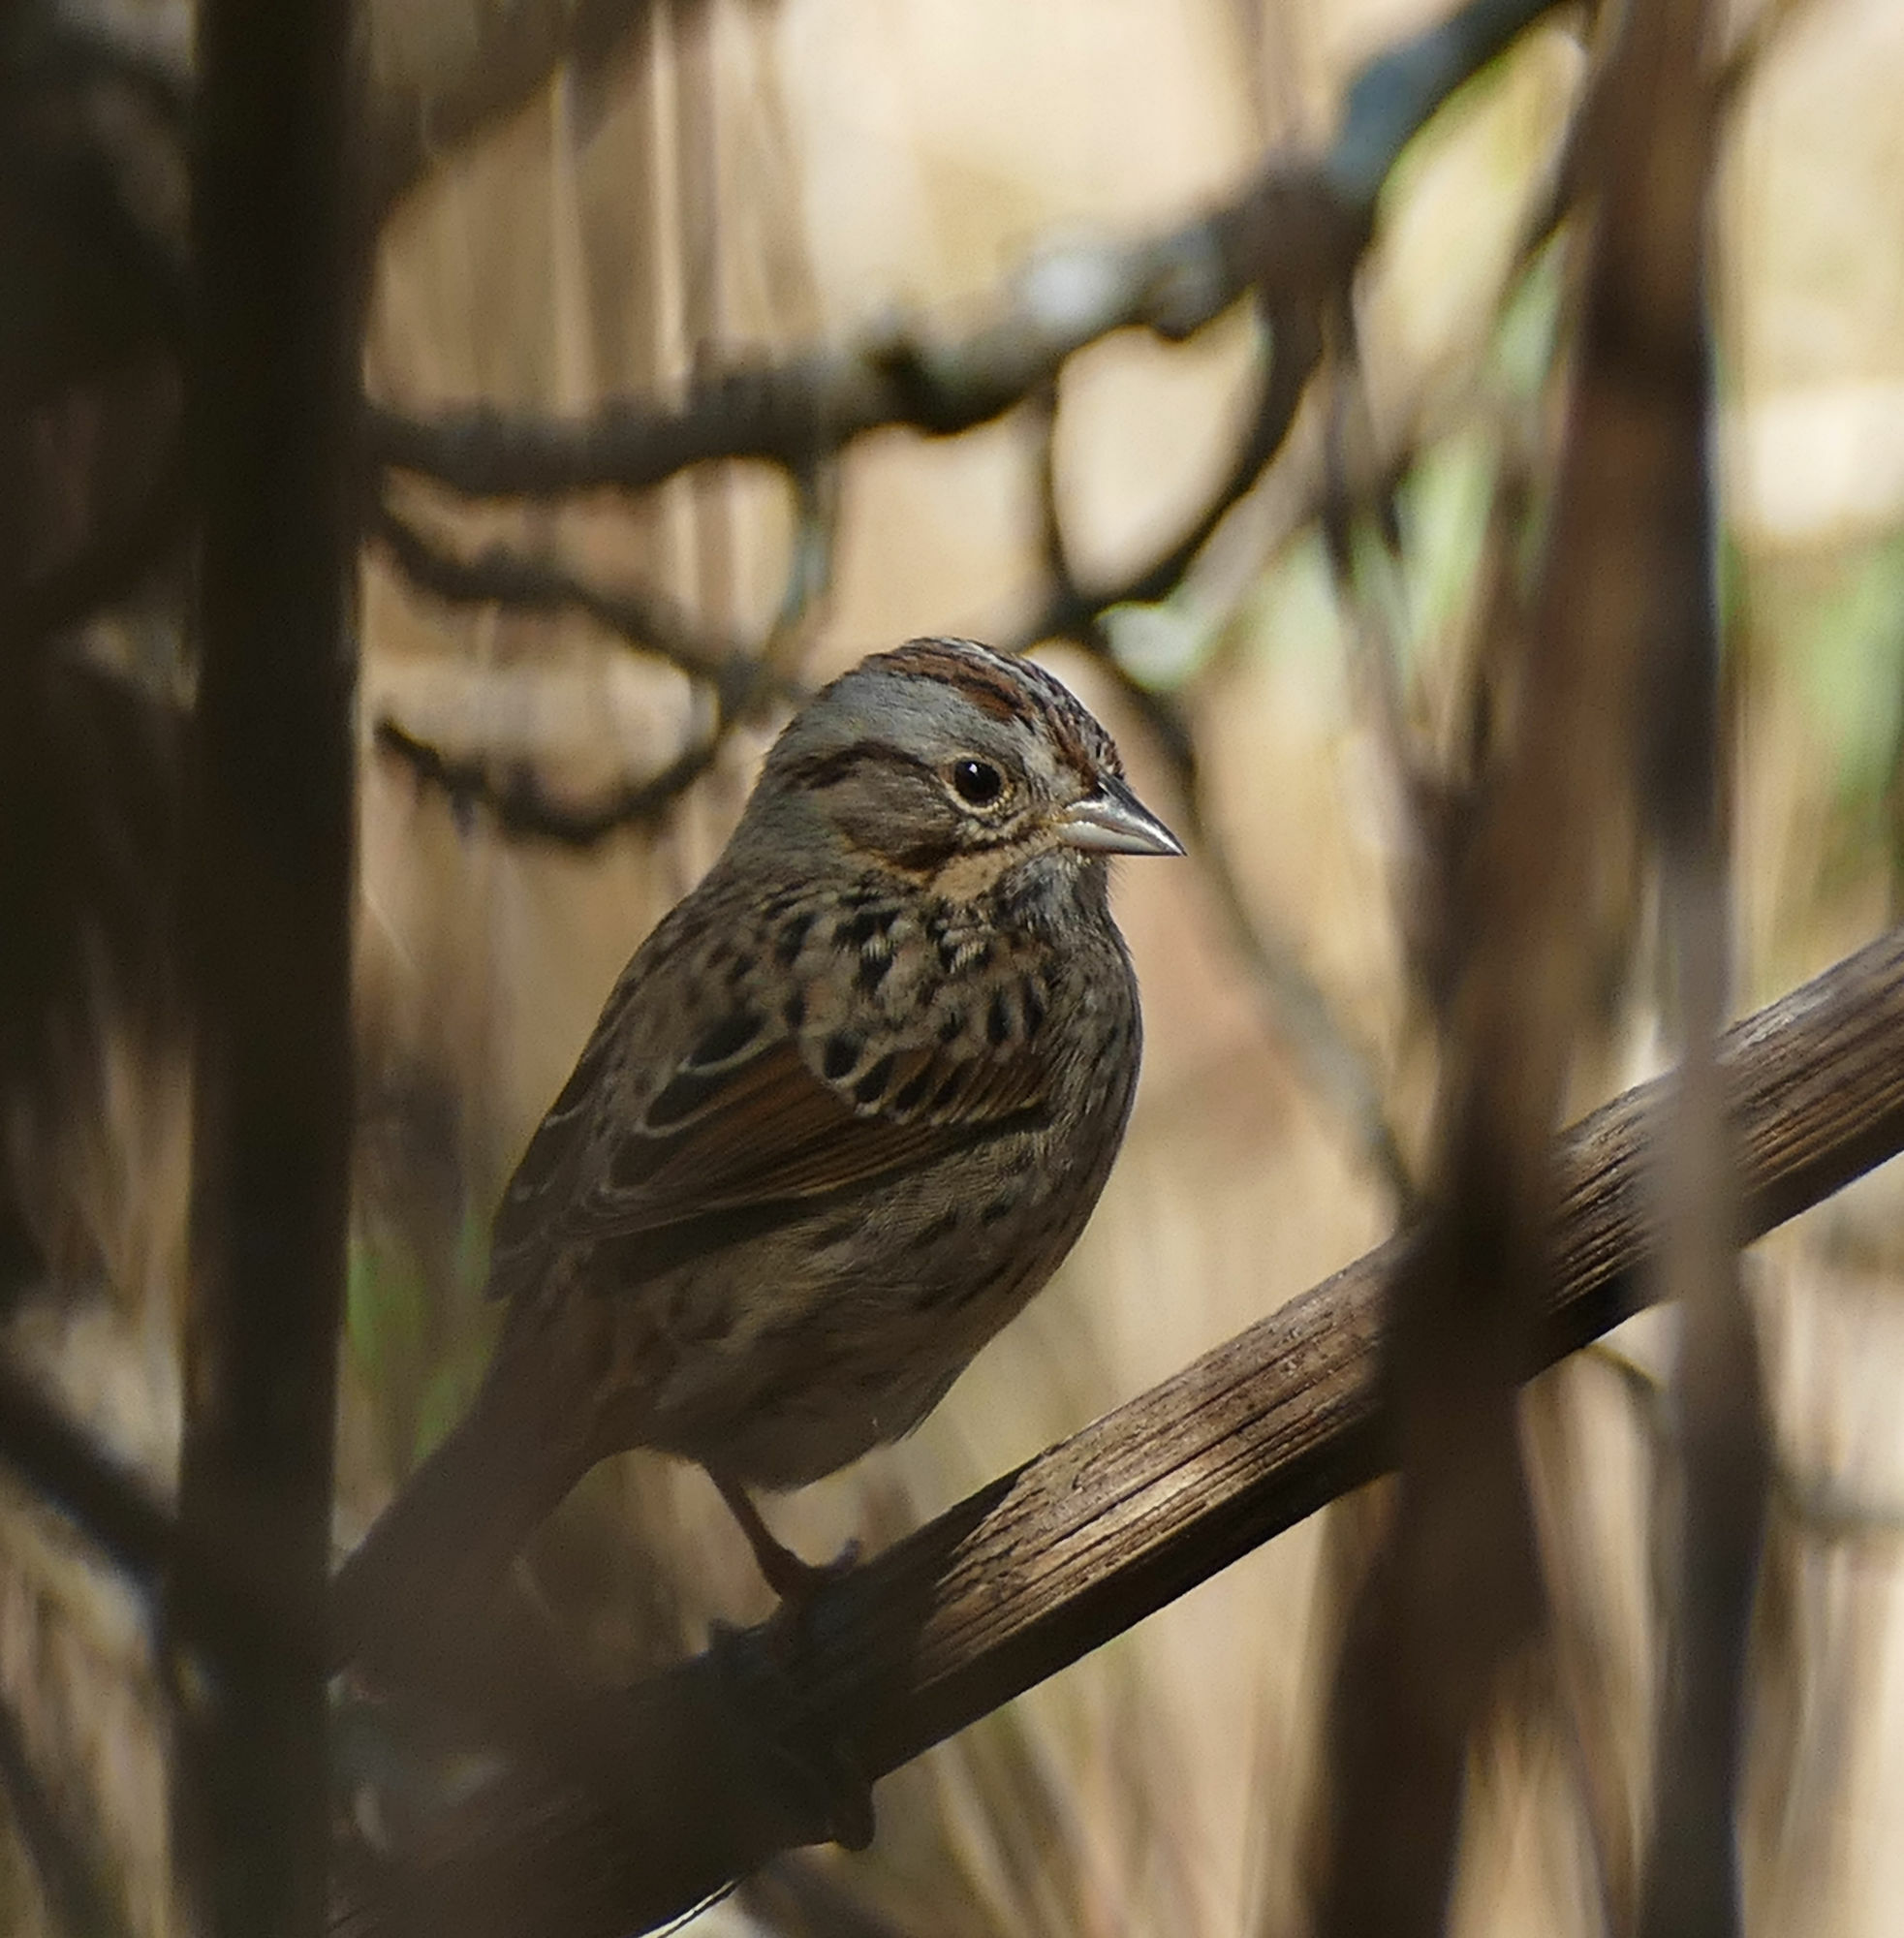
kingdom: Animalia
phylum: Chordata
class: Aves
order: Passeriformes
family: Passerellidae
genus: Melospiza
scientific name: Melospiza lincolnii
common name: Lincoln's sparrow
